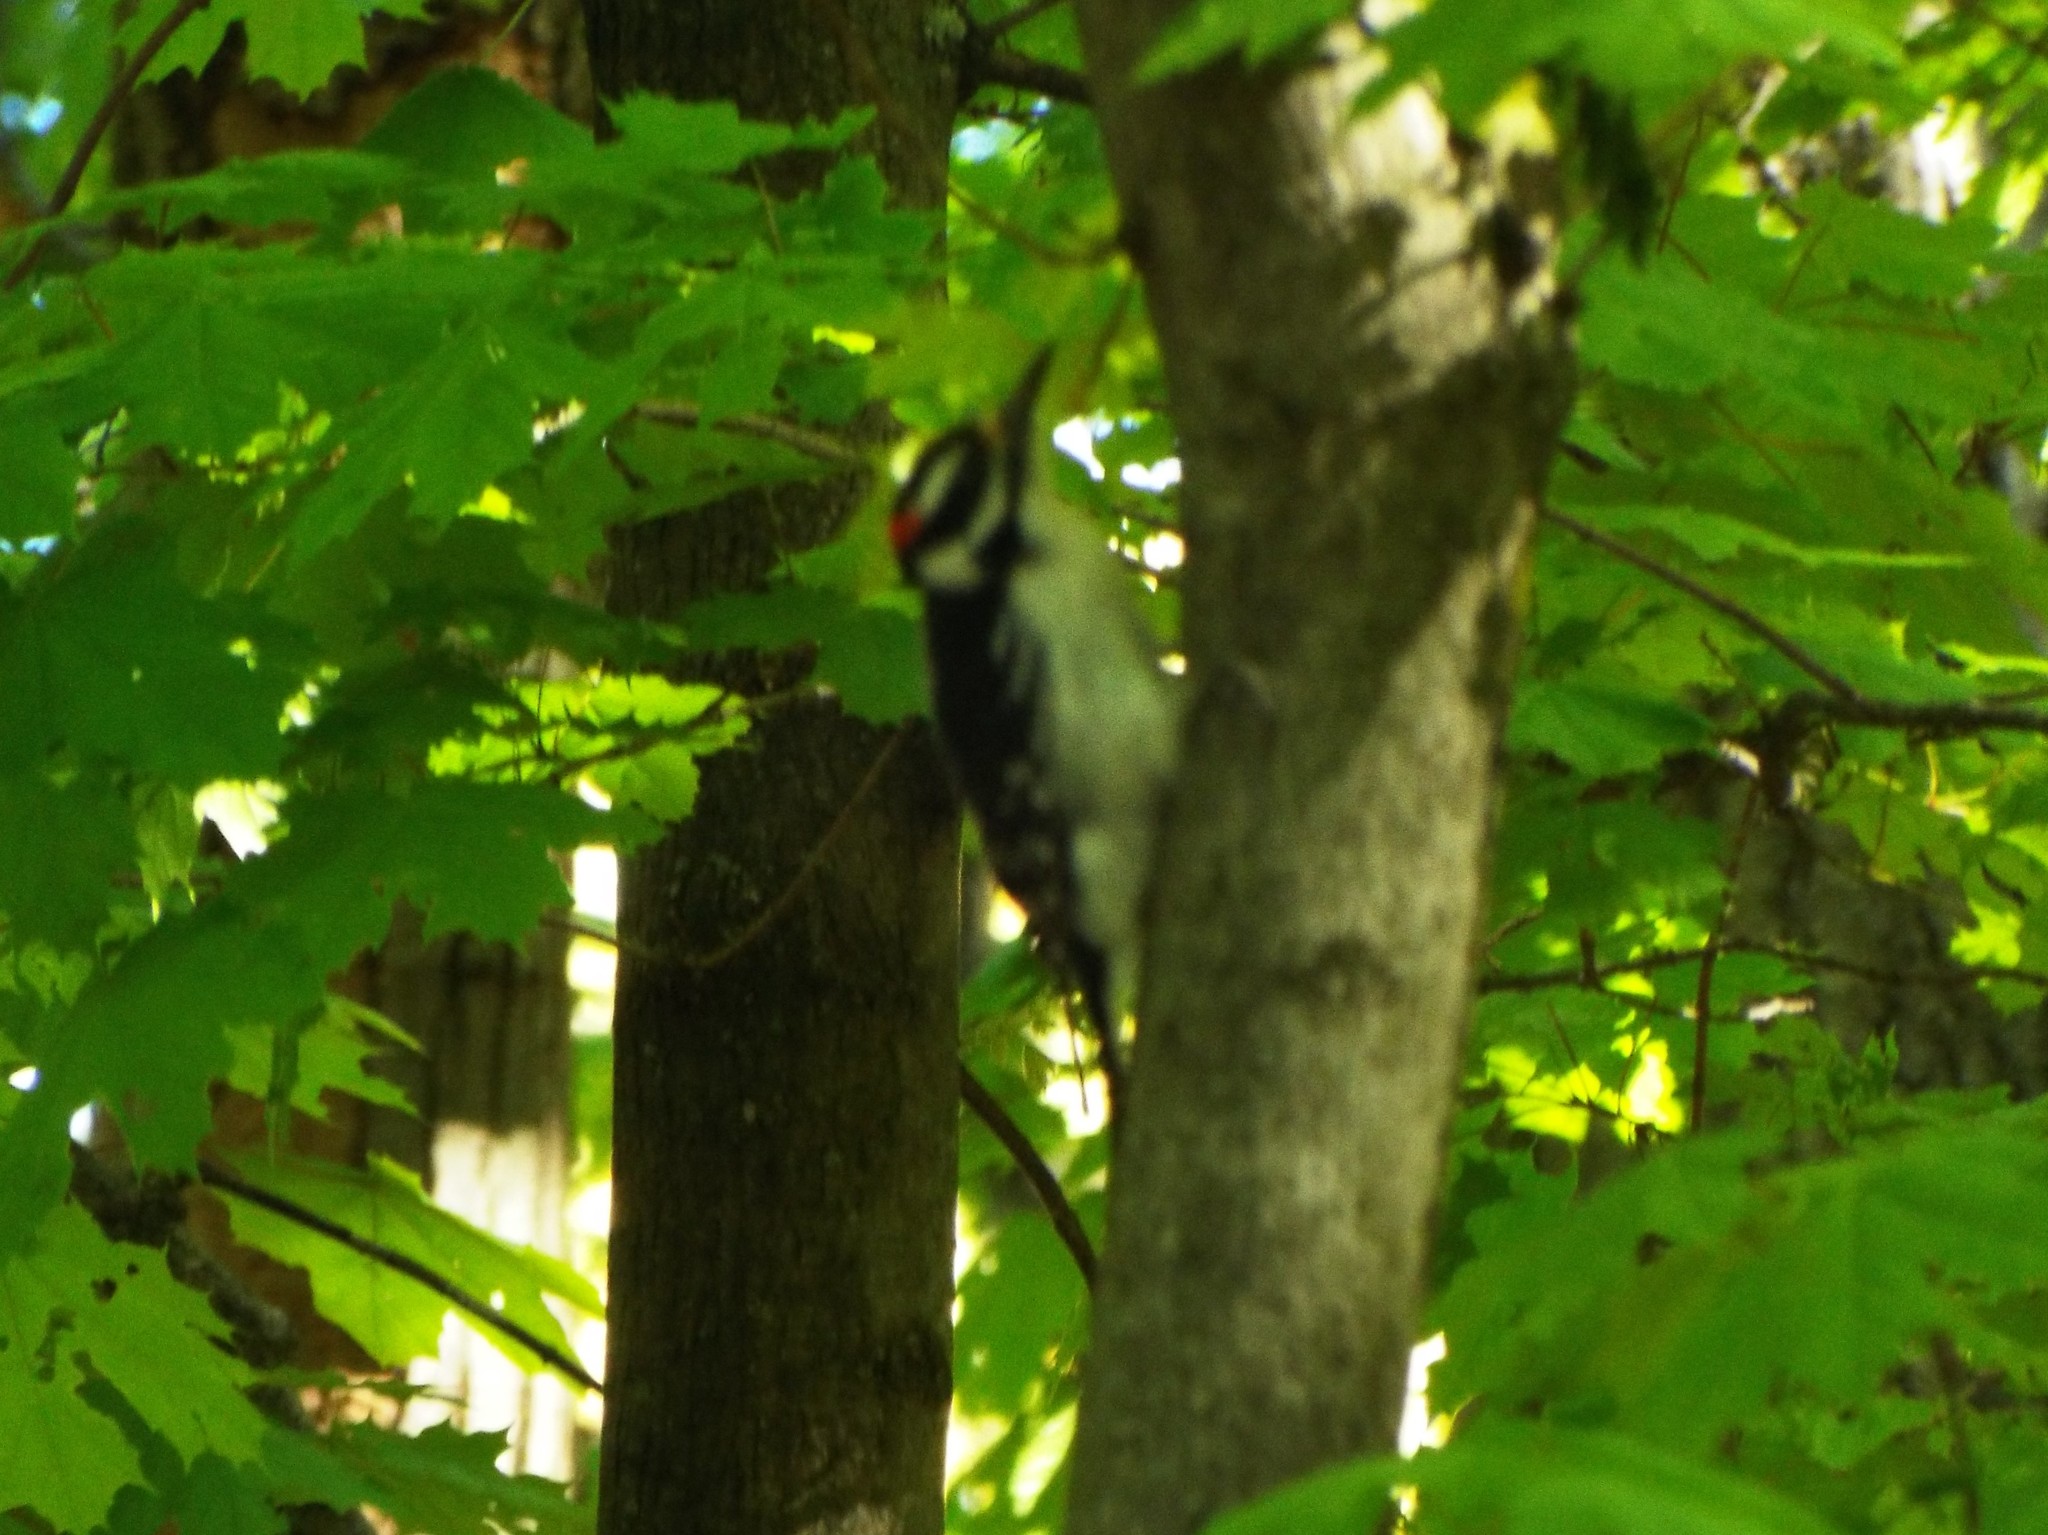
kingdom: Animalia
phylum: Chordata
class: Aves
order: Piciformes
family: Picidae
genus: Leuconotopicus
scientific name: Leuconotopicus villosus
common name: Hairy woodpecker
